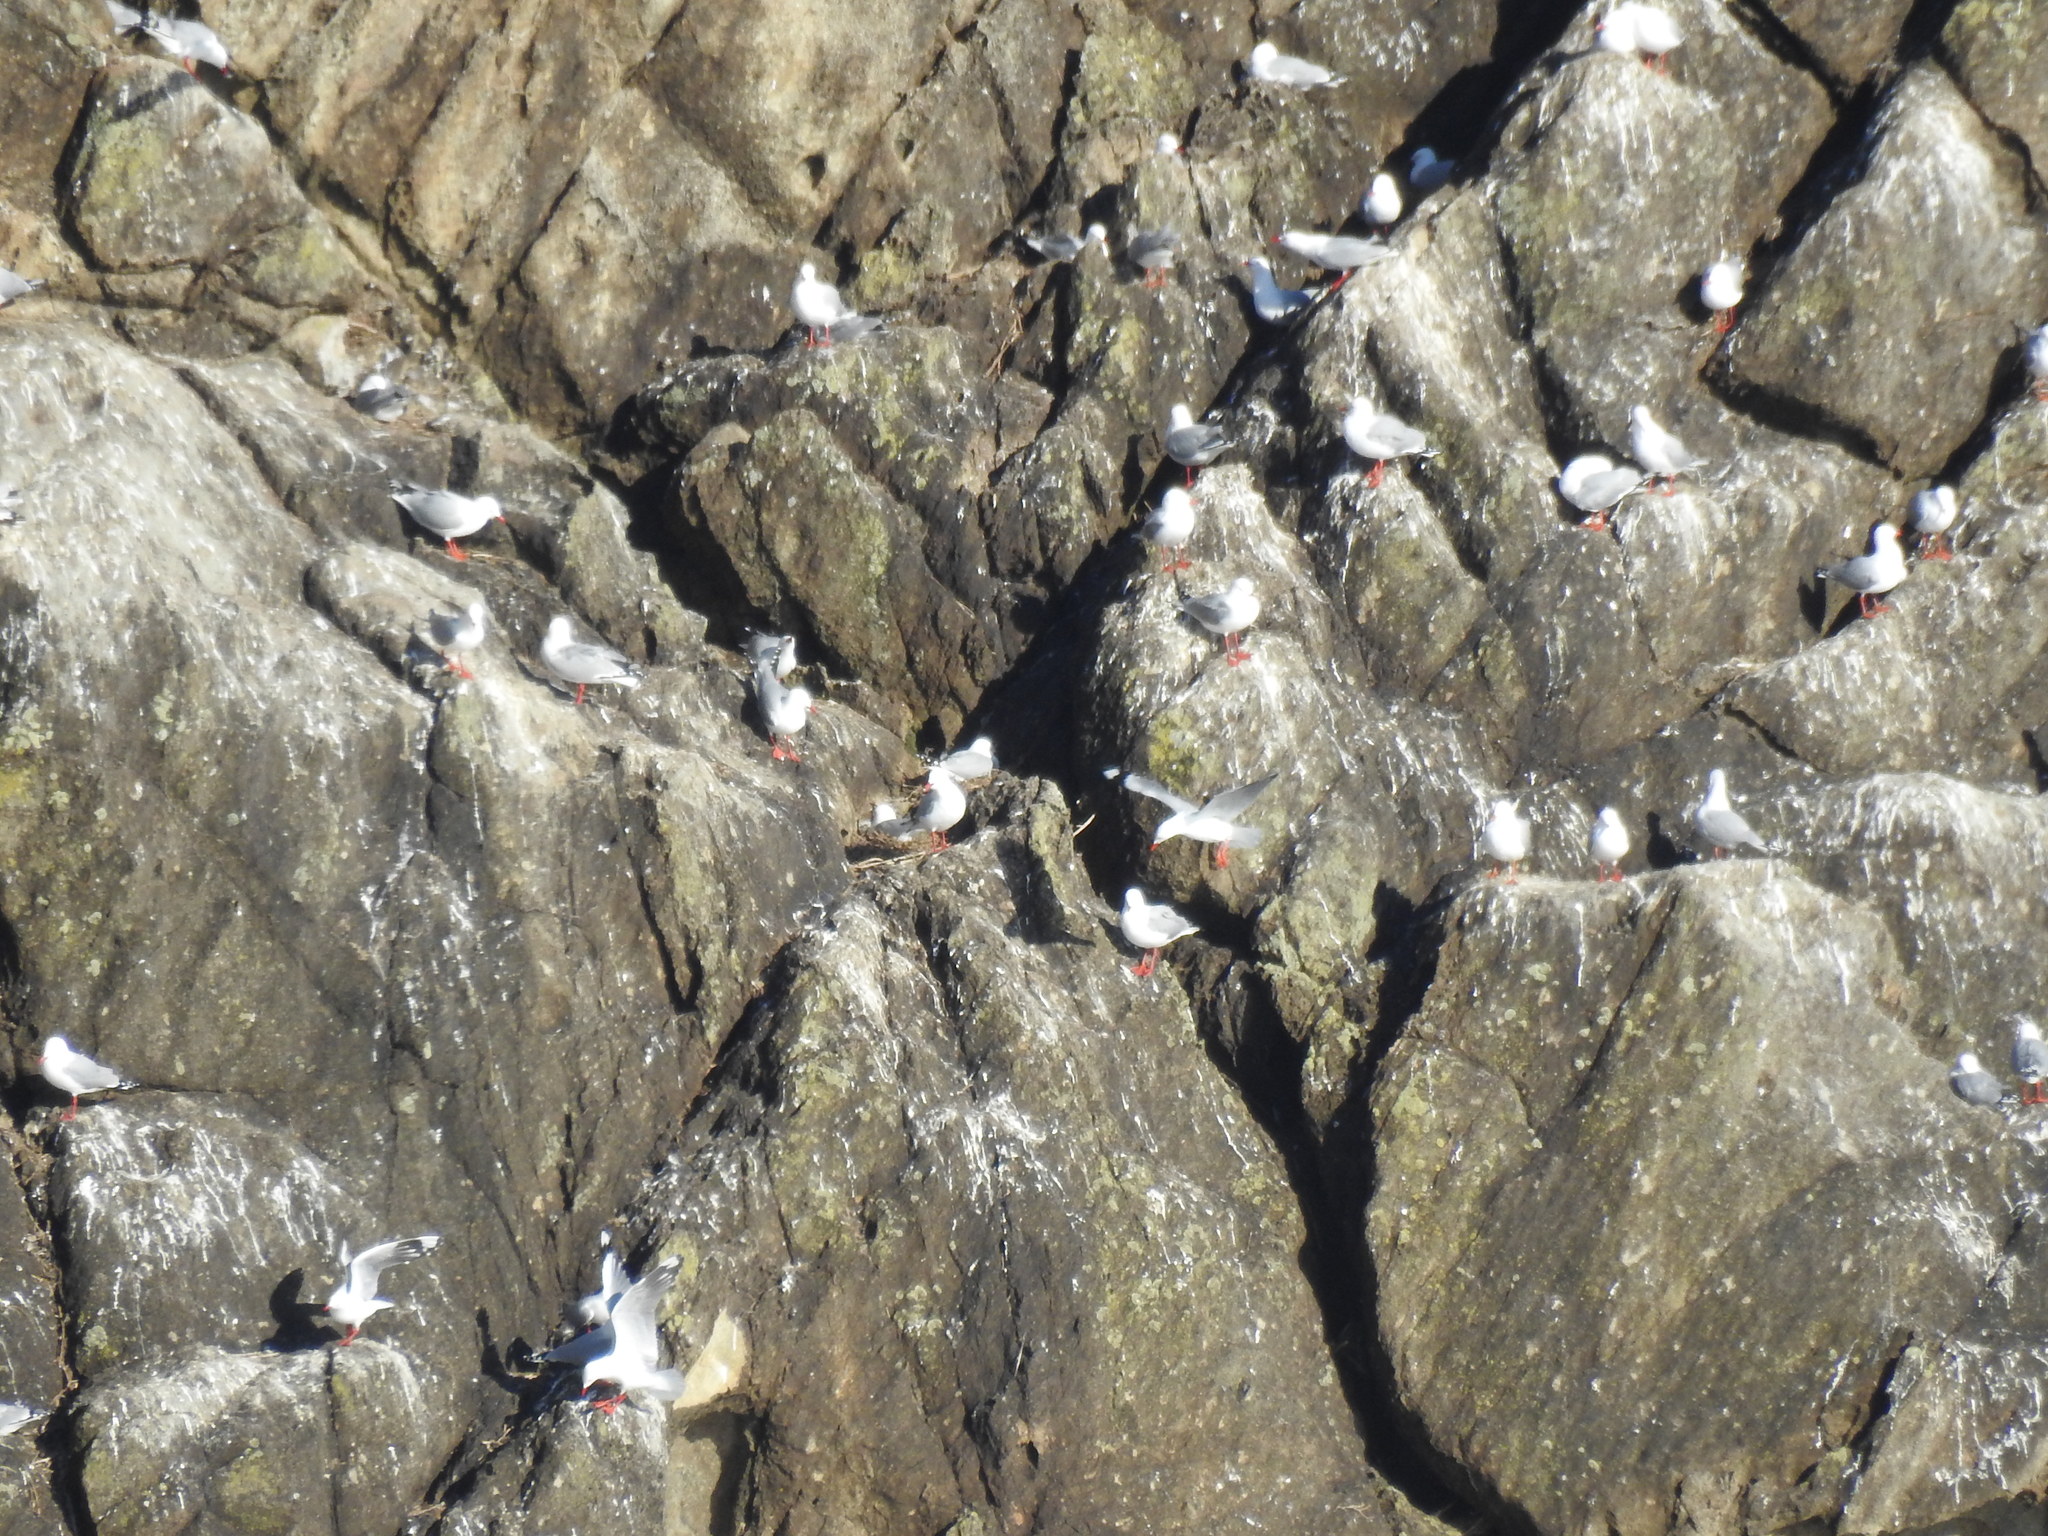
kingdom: Animalia
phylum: Chordata
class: Aves
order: Charadriiformes
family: Laridae
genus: Chroicocephalus
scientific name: Chroicocephalus novaehollandiae
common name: Silver gull
